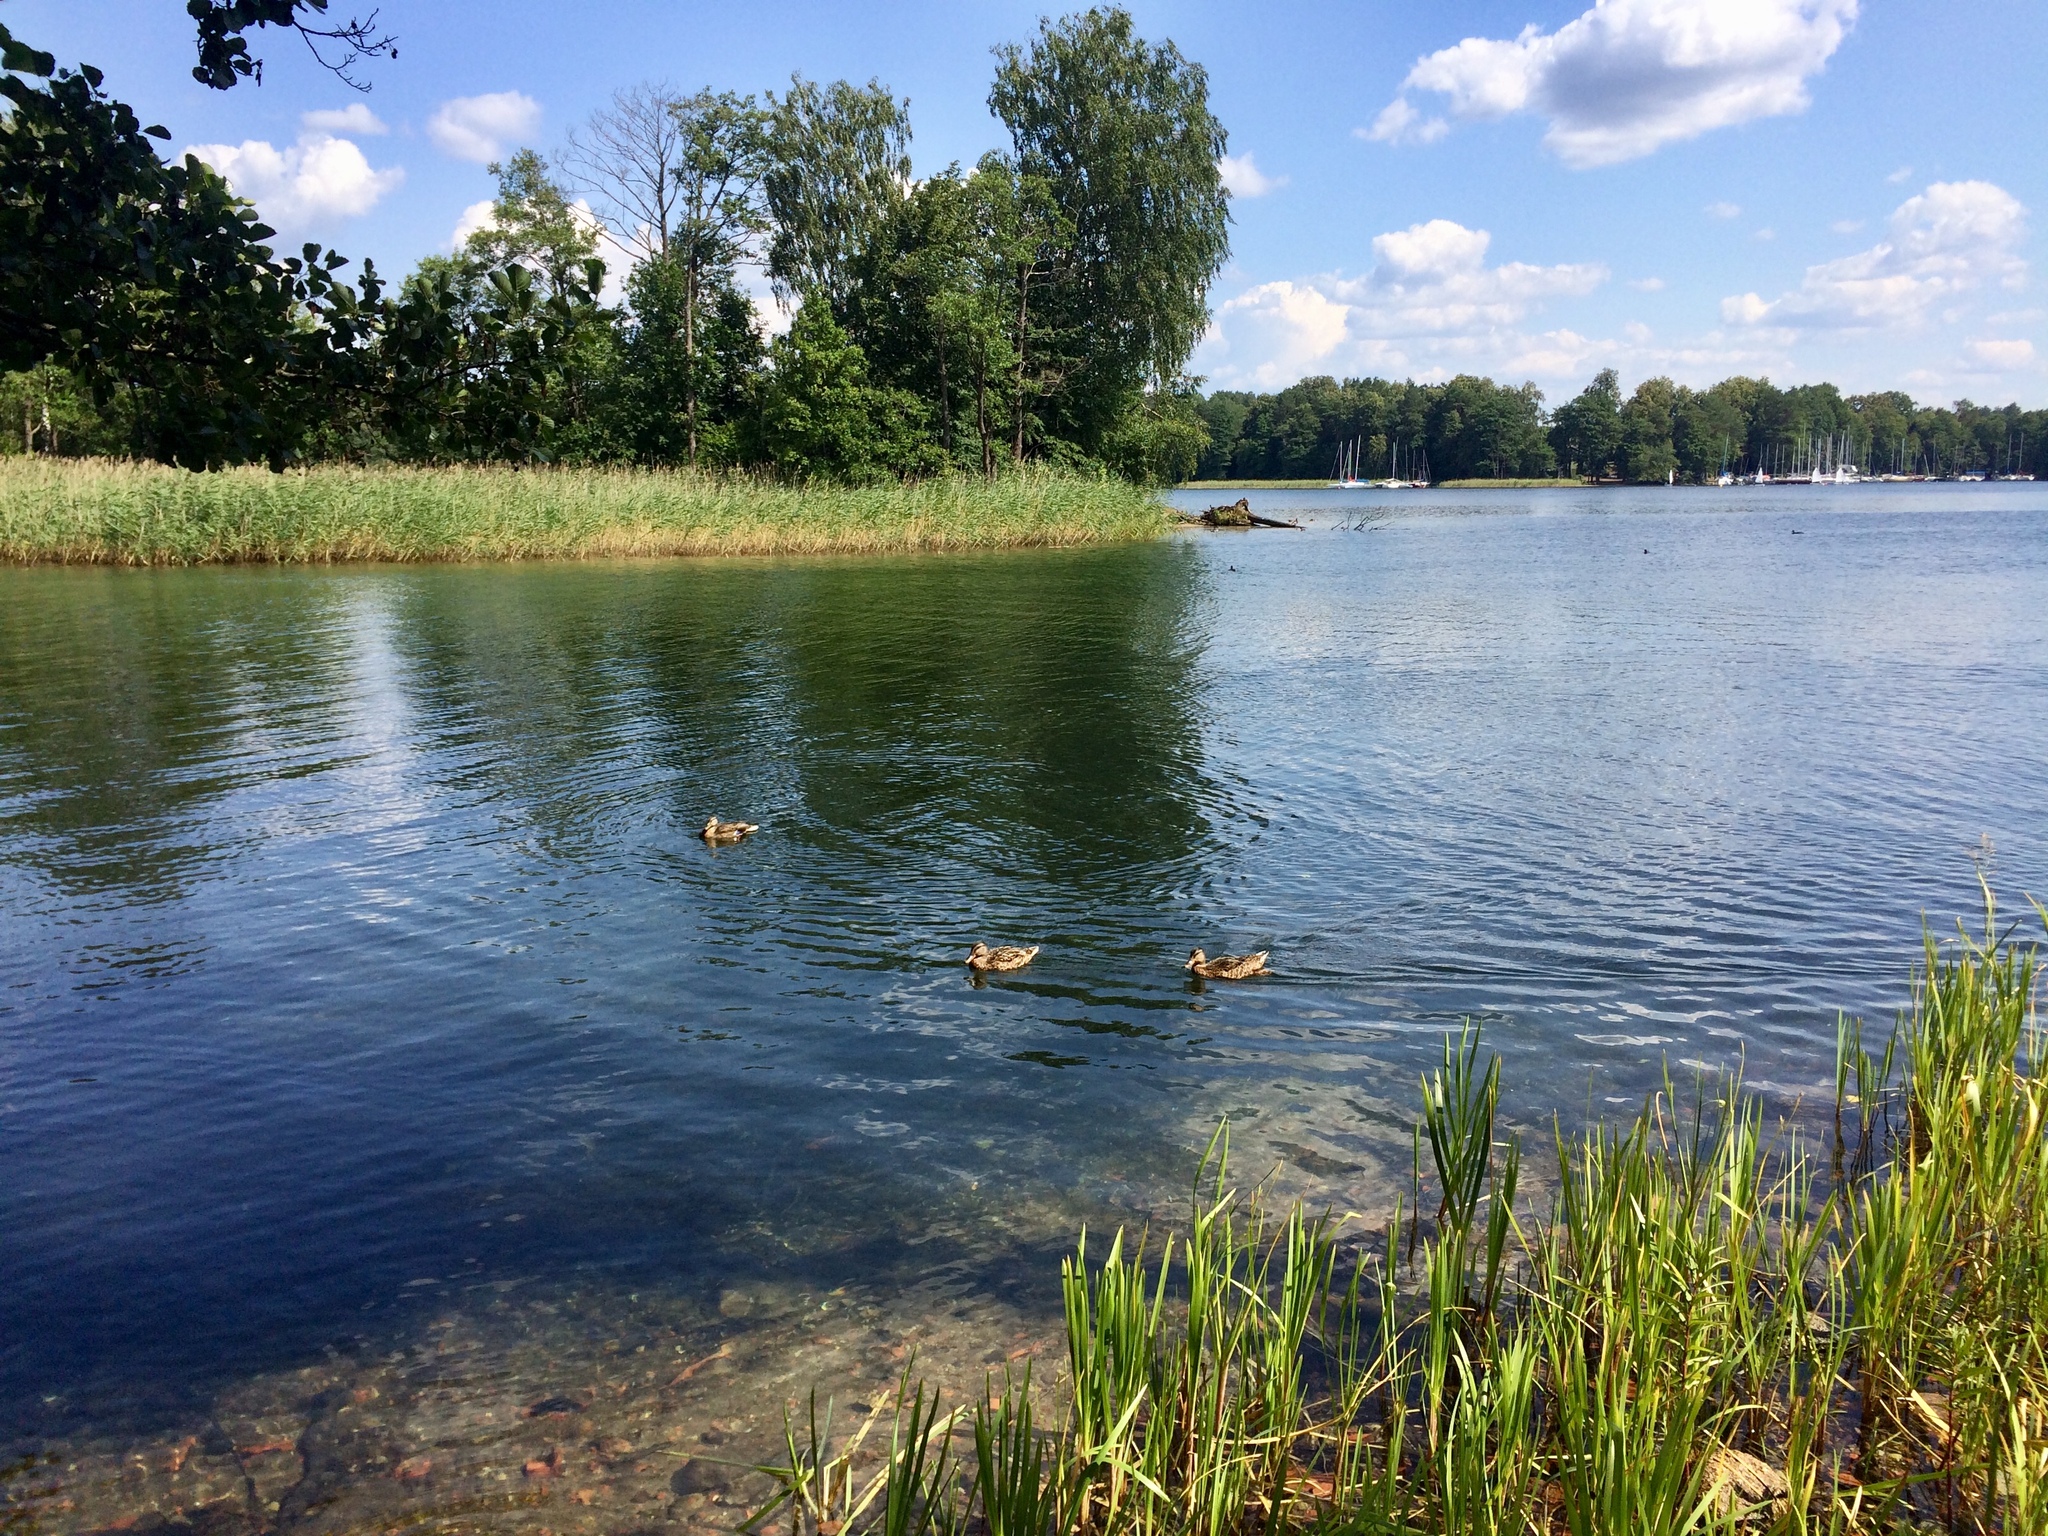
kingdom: Animalia
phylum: Chordata
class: Aves
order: Anseriformes
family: Anatidae
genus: Anas
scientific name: Anas platyrhynchos
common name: Mallard
